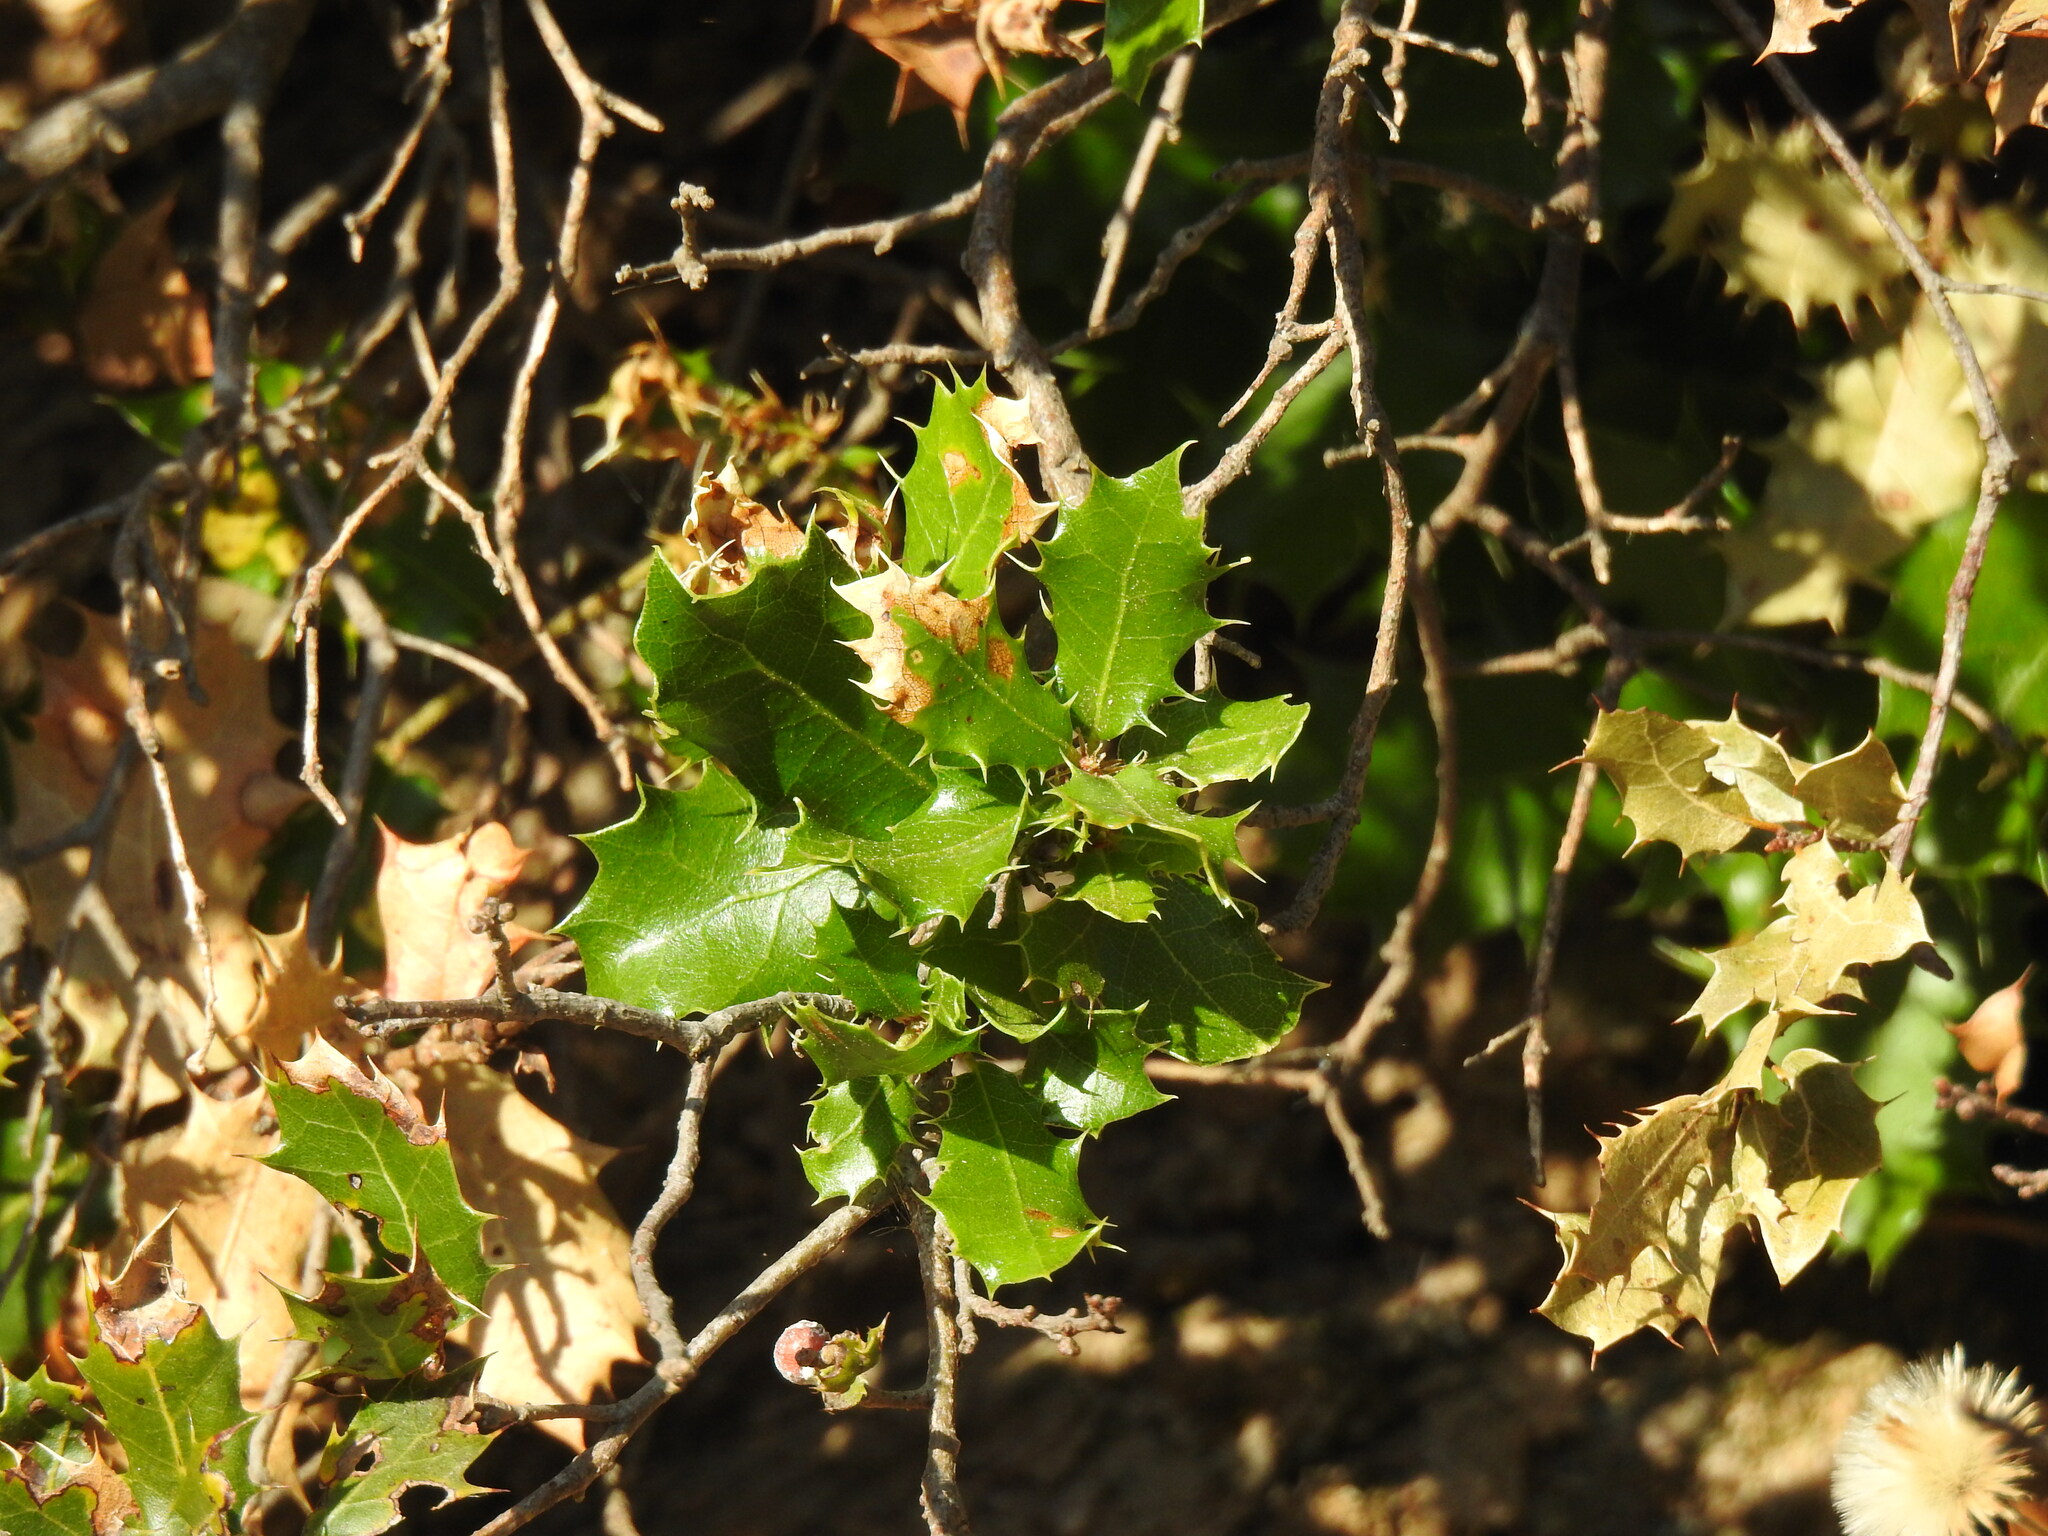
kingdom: Plantae
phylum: Tracheophyta
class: Magnoliopsida
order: Fagales
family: Fagaceae
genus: Quercus
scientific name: Quercus coccifera
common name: Kermes oak
